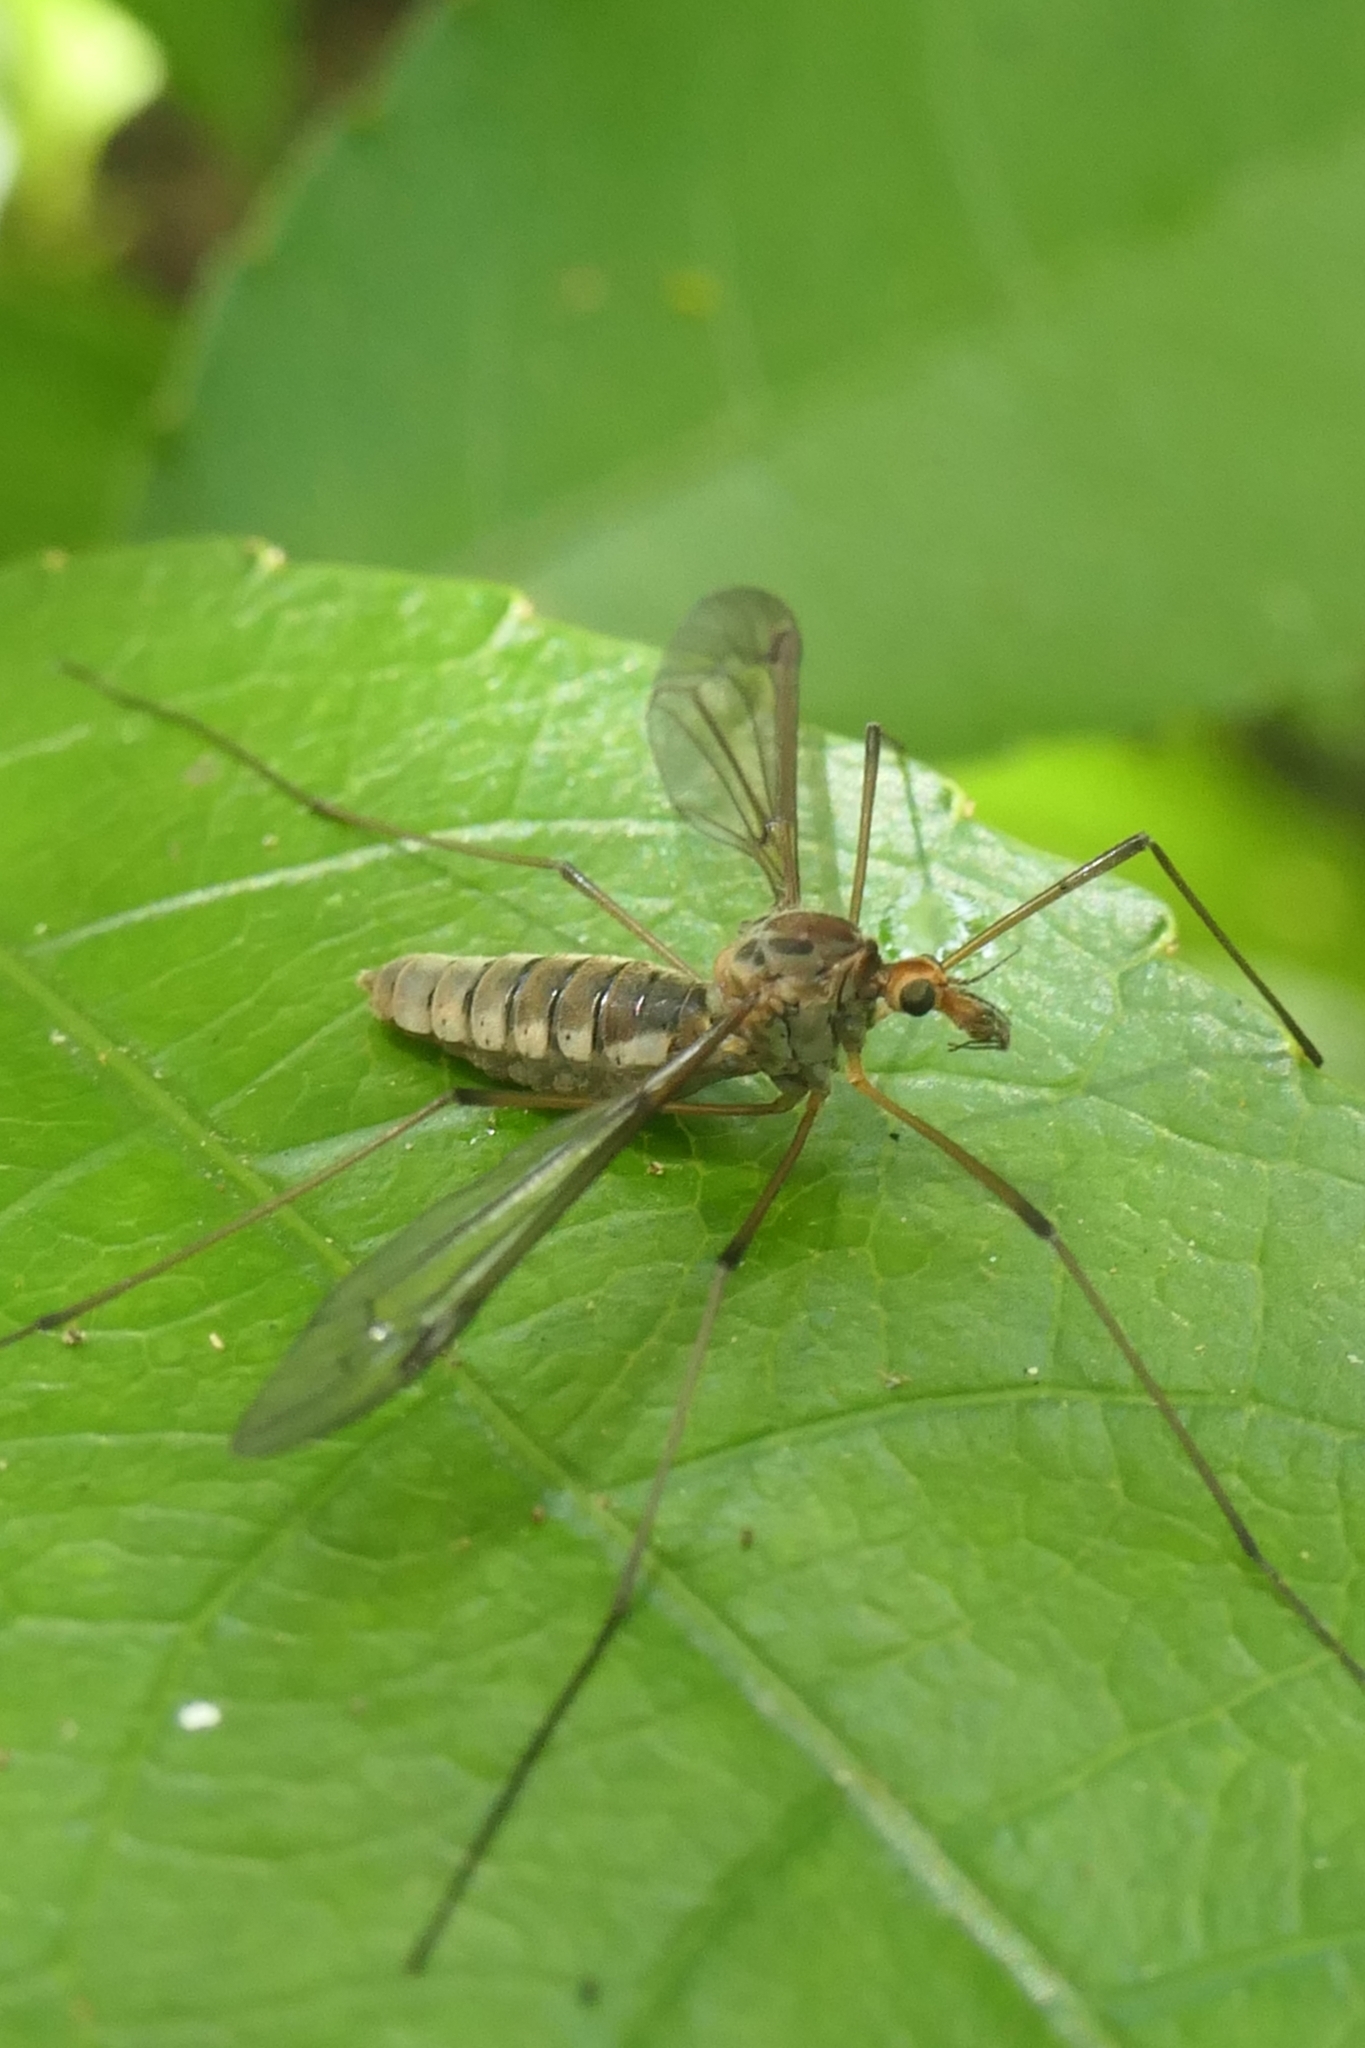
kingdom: Animalia
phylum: Arthropoda
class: Insecta
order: Diptera
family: Tipulidae
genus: Leptotarsus
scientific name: Leptotarsus dichroithorax
